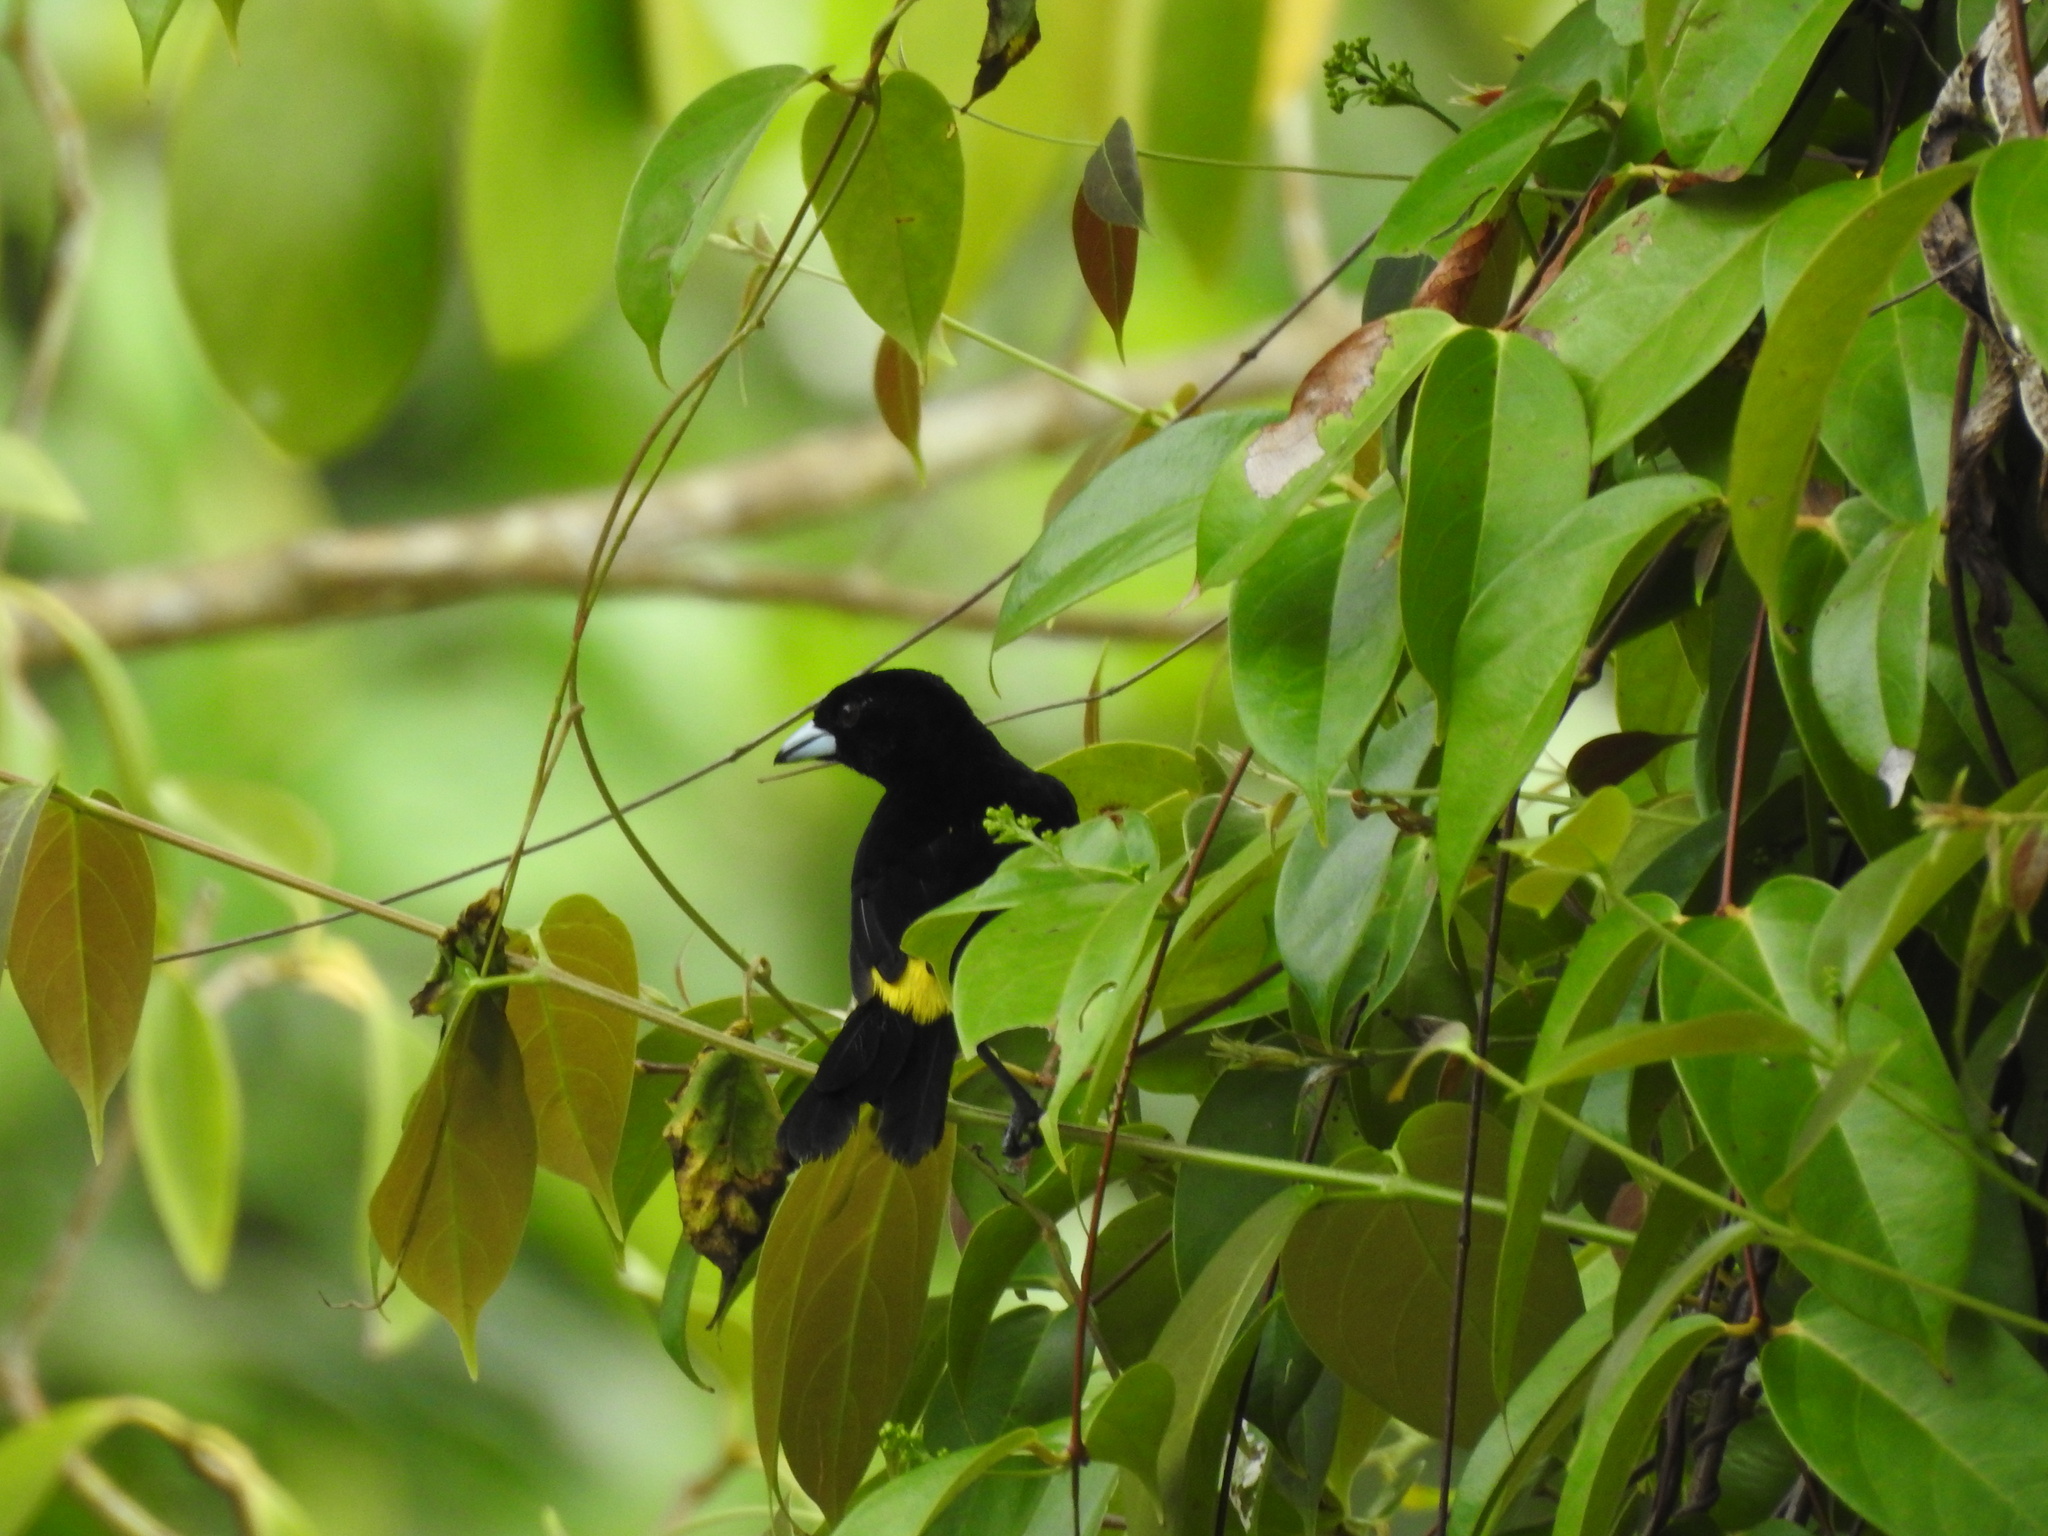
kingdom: Animalia
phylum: Chordata
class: Aves
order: Passeriformes
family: Thraupidae
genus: Ramphocelus
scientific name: Ramphocelus icteronotus
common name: Lemon-rumped tanager
